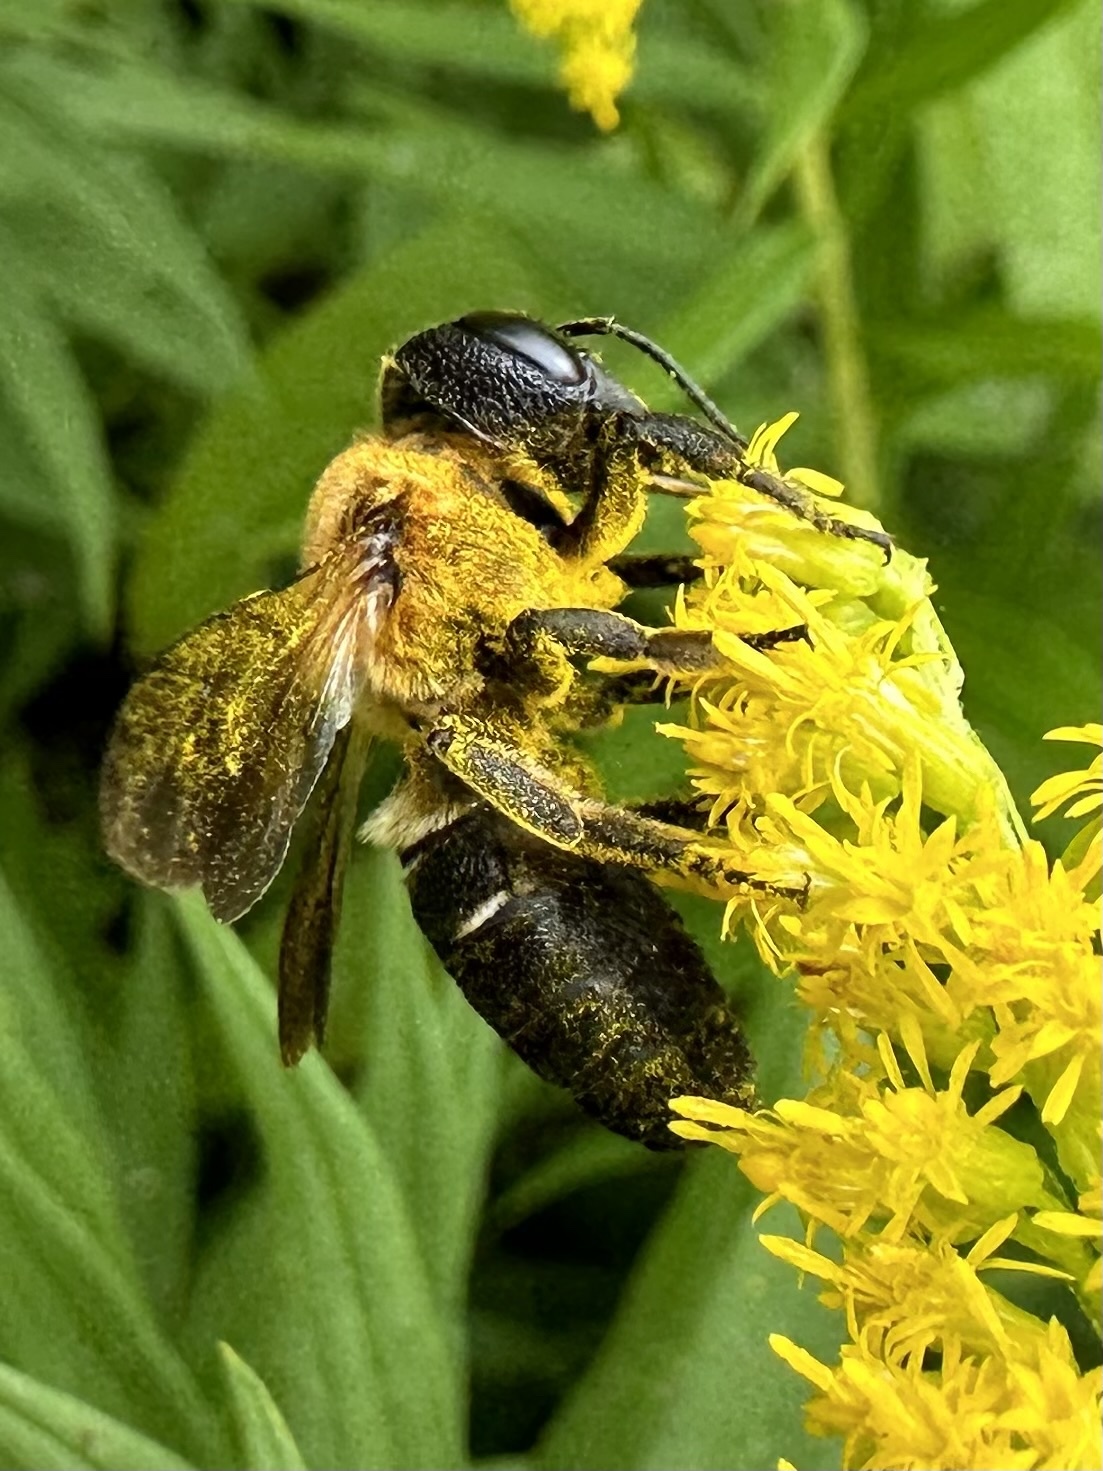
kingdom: Animalia
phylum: Arthropoda
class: Insecta
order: Hymenoptera
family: Megachilidae
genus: Megachile
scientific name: Megachile sculpturalis
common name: Sculptured resin bee
